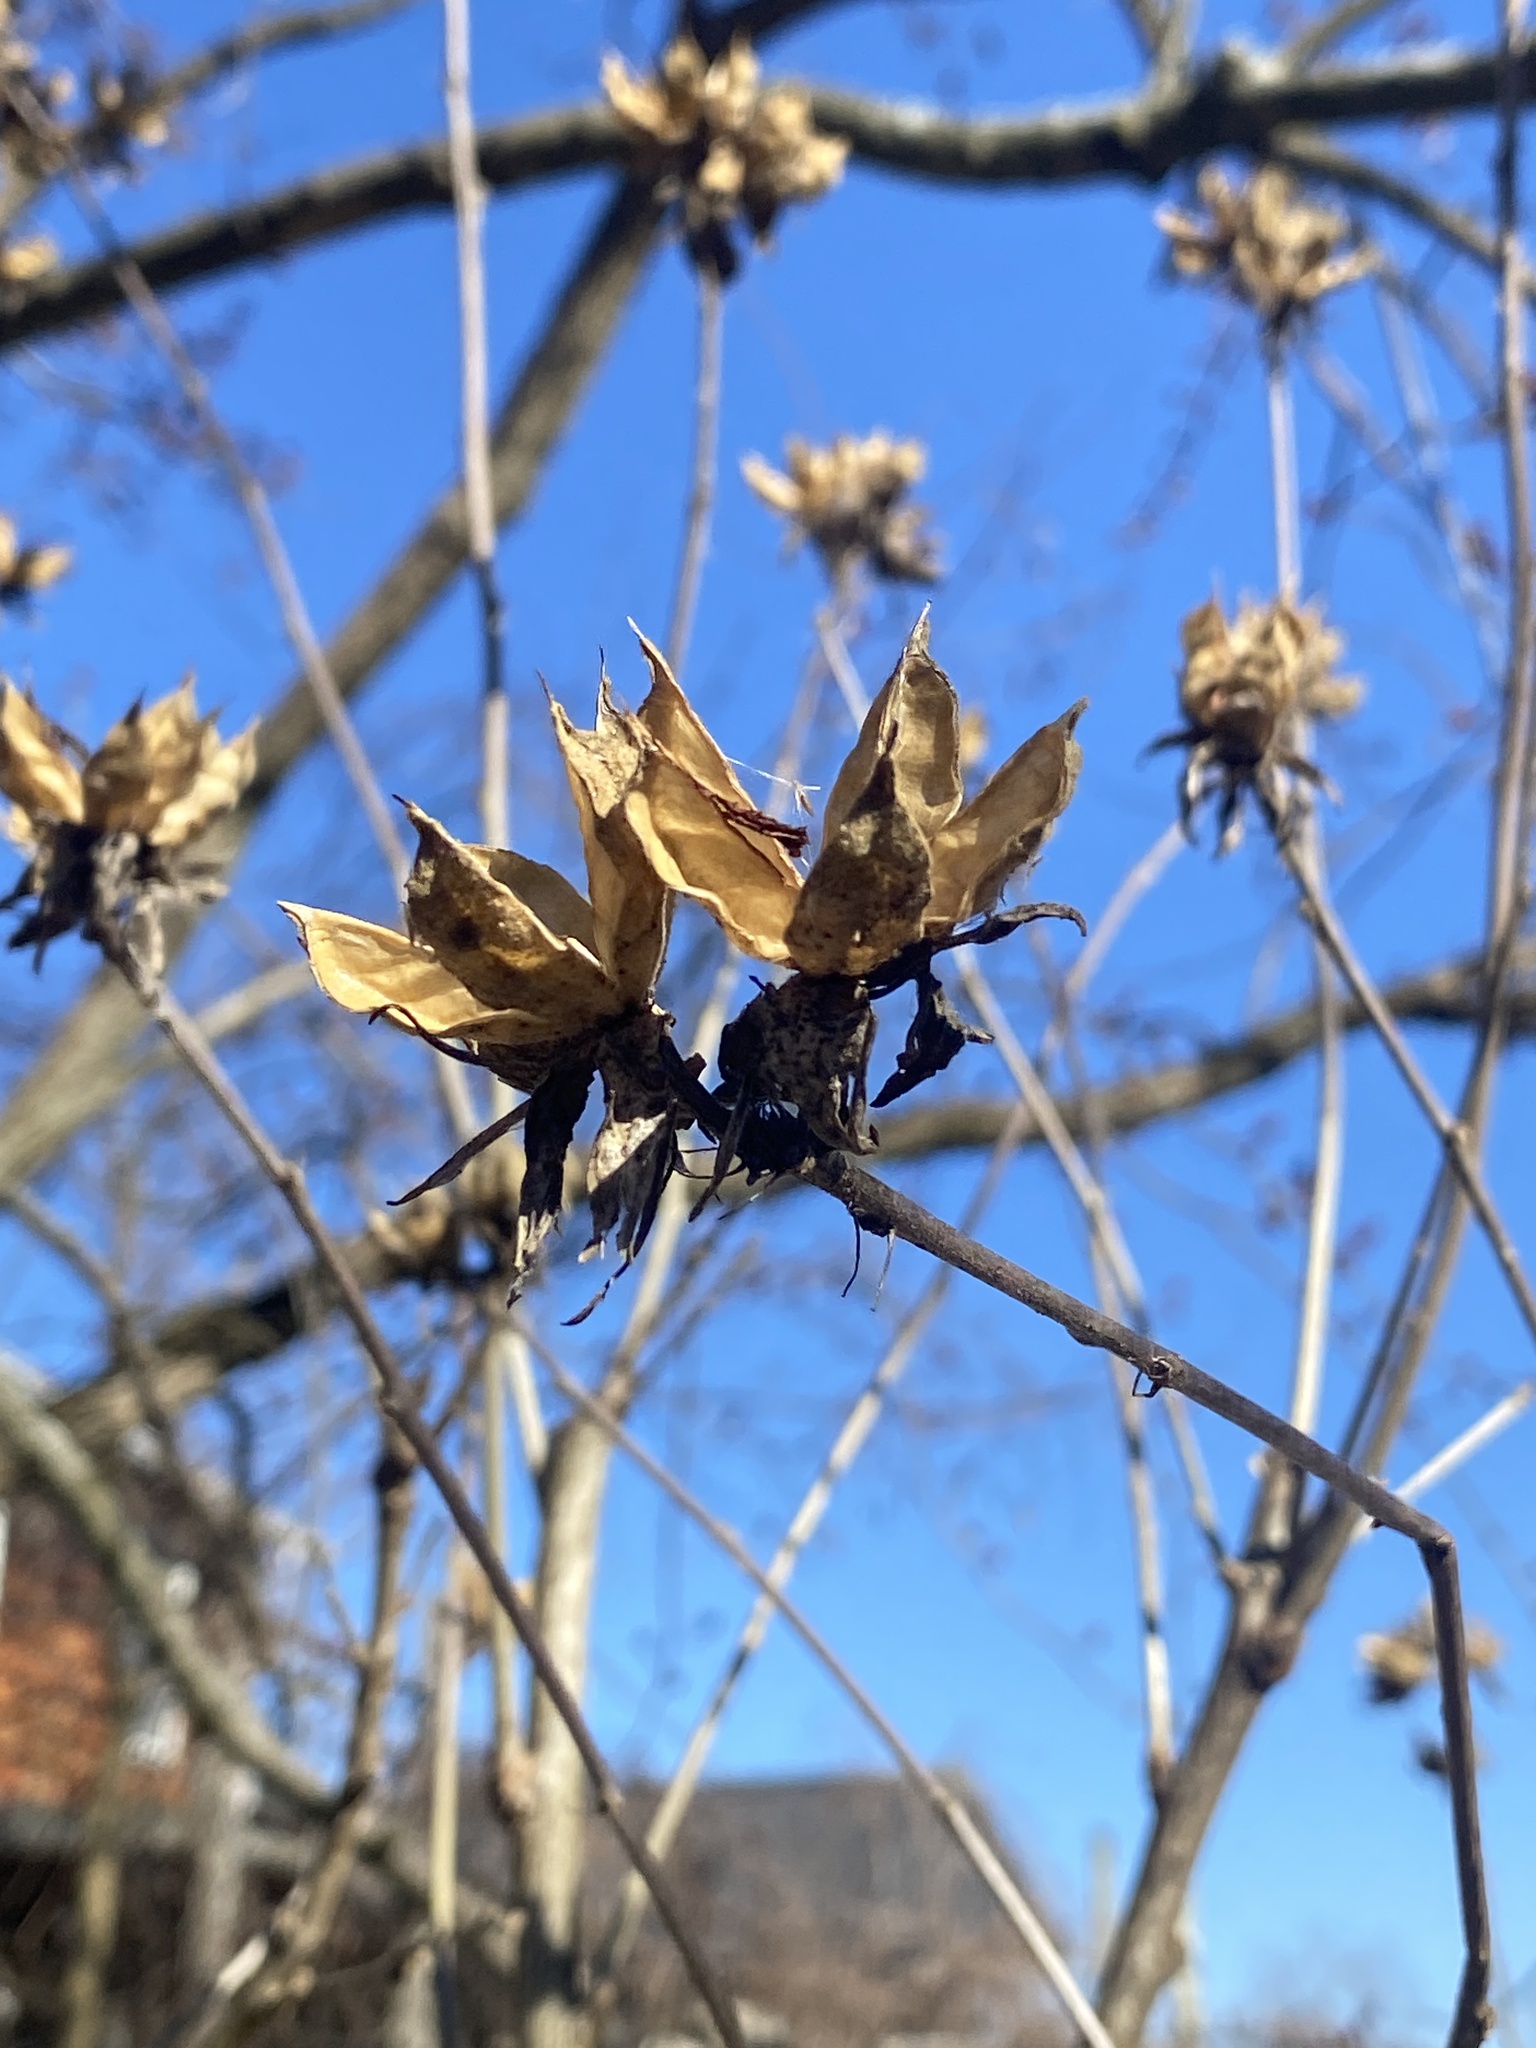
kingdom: Plantae
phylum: Tracheophyta
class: Magnoliopsida
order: Malvales
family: Malvaceae
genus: Hibiscus
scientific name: Hibiscus syriacus
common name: Syrian ketmia
